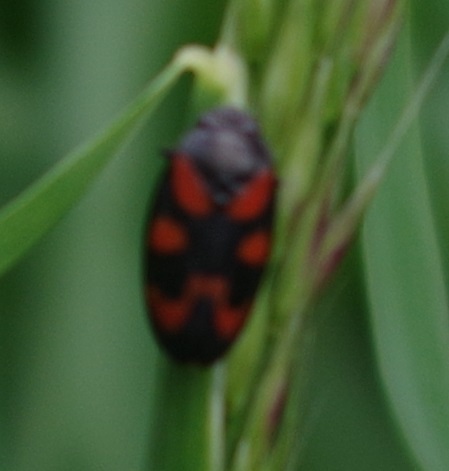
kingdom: Animalia
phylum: Arthropoda
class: Insecta
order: Hemiptera
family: Cercopidae
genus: Cercopis
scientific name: Cercopis vulnerata
